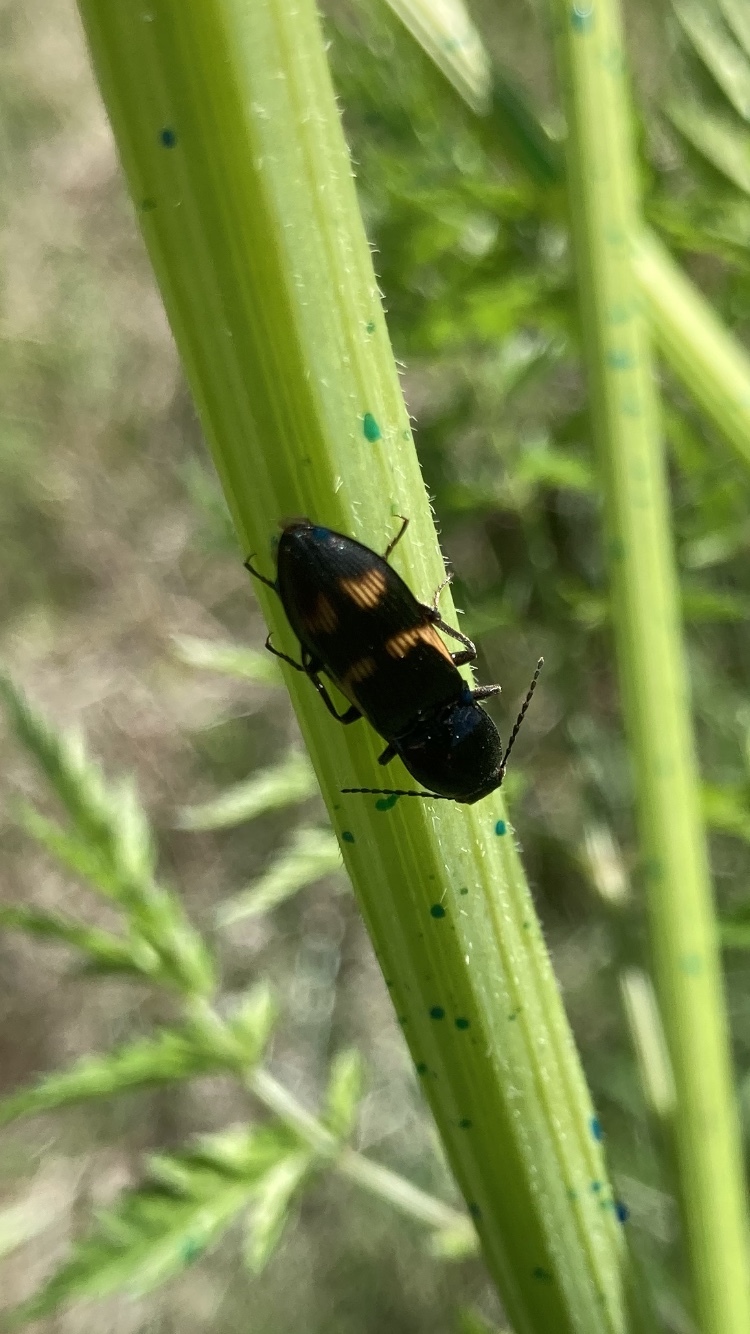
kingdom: Animalia
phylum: Arthropoda
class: Insecta
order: Coleoptera
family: Elateridae
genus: Selatosomus
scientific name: Selatosomus suckleyi
